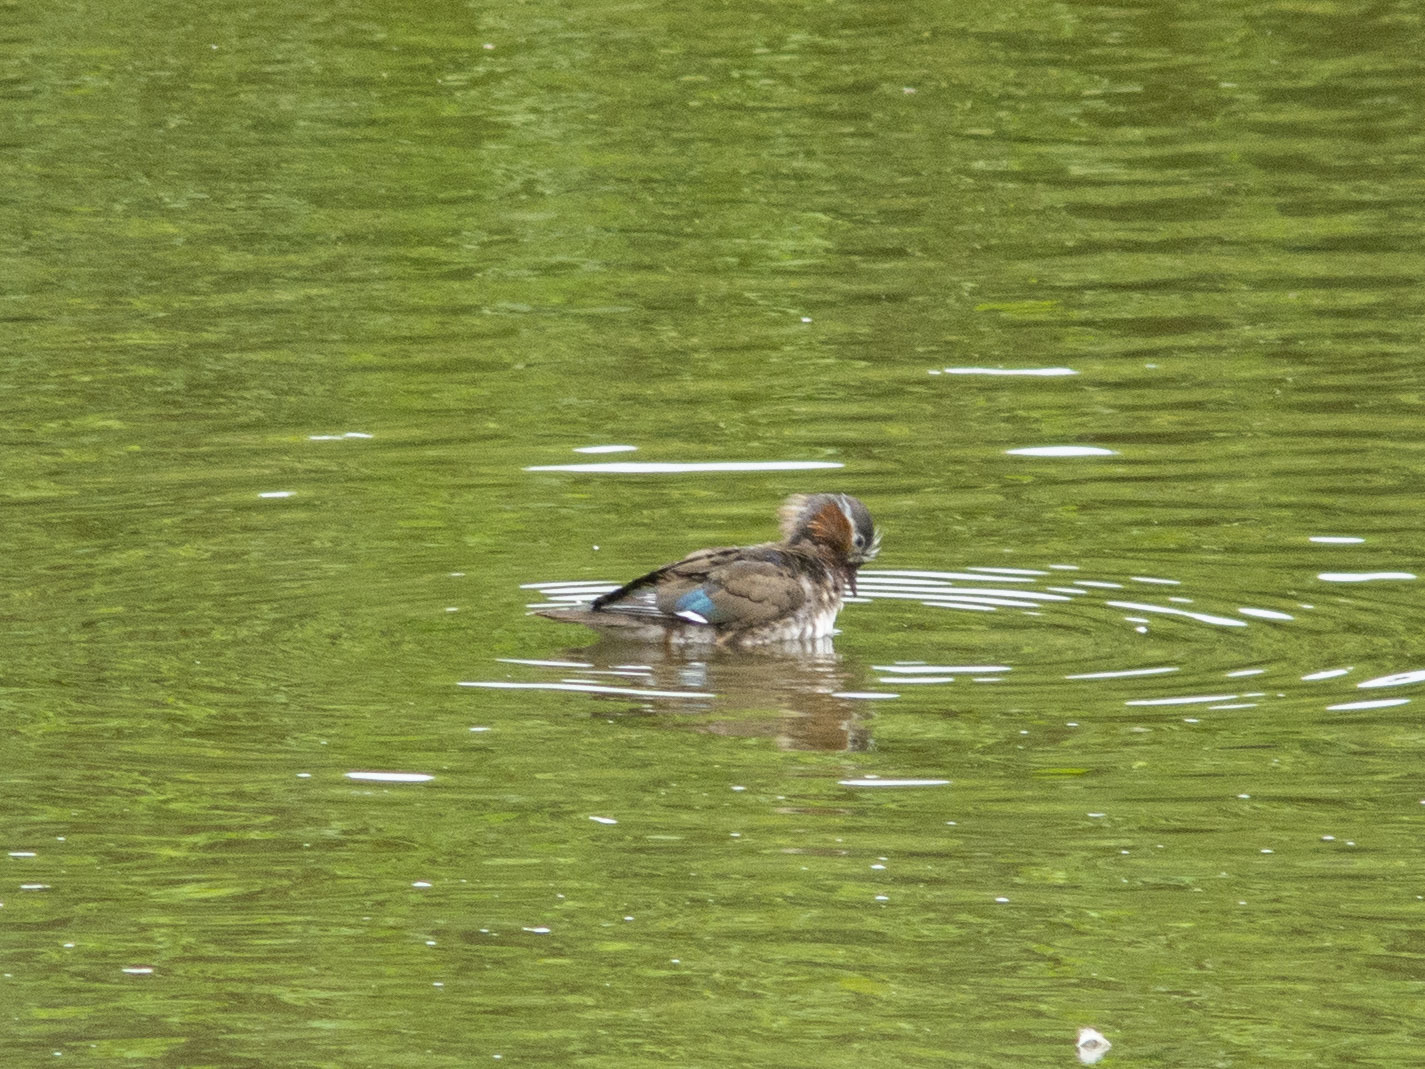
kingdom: Animalia
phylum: Chordata
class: Aves
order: Anseriformes
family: Anatidae
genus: Aix
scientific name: Aix galericulata
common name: Mandarin duck
